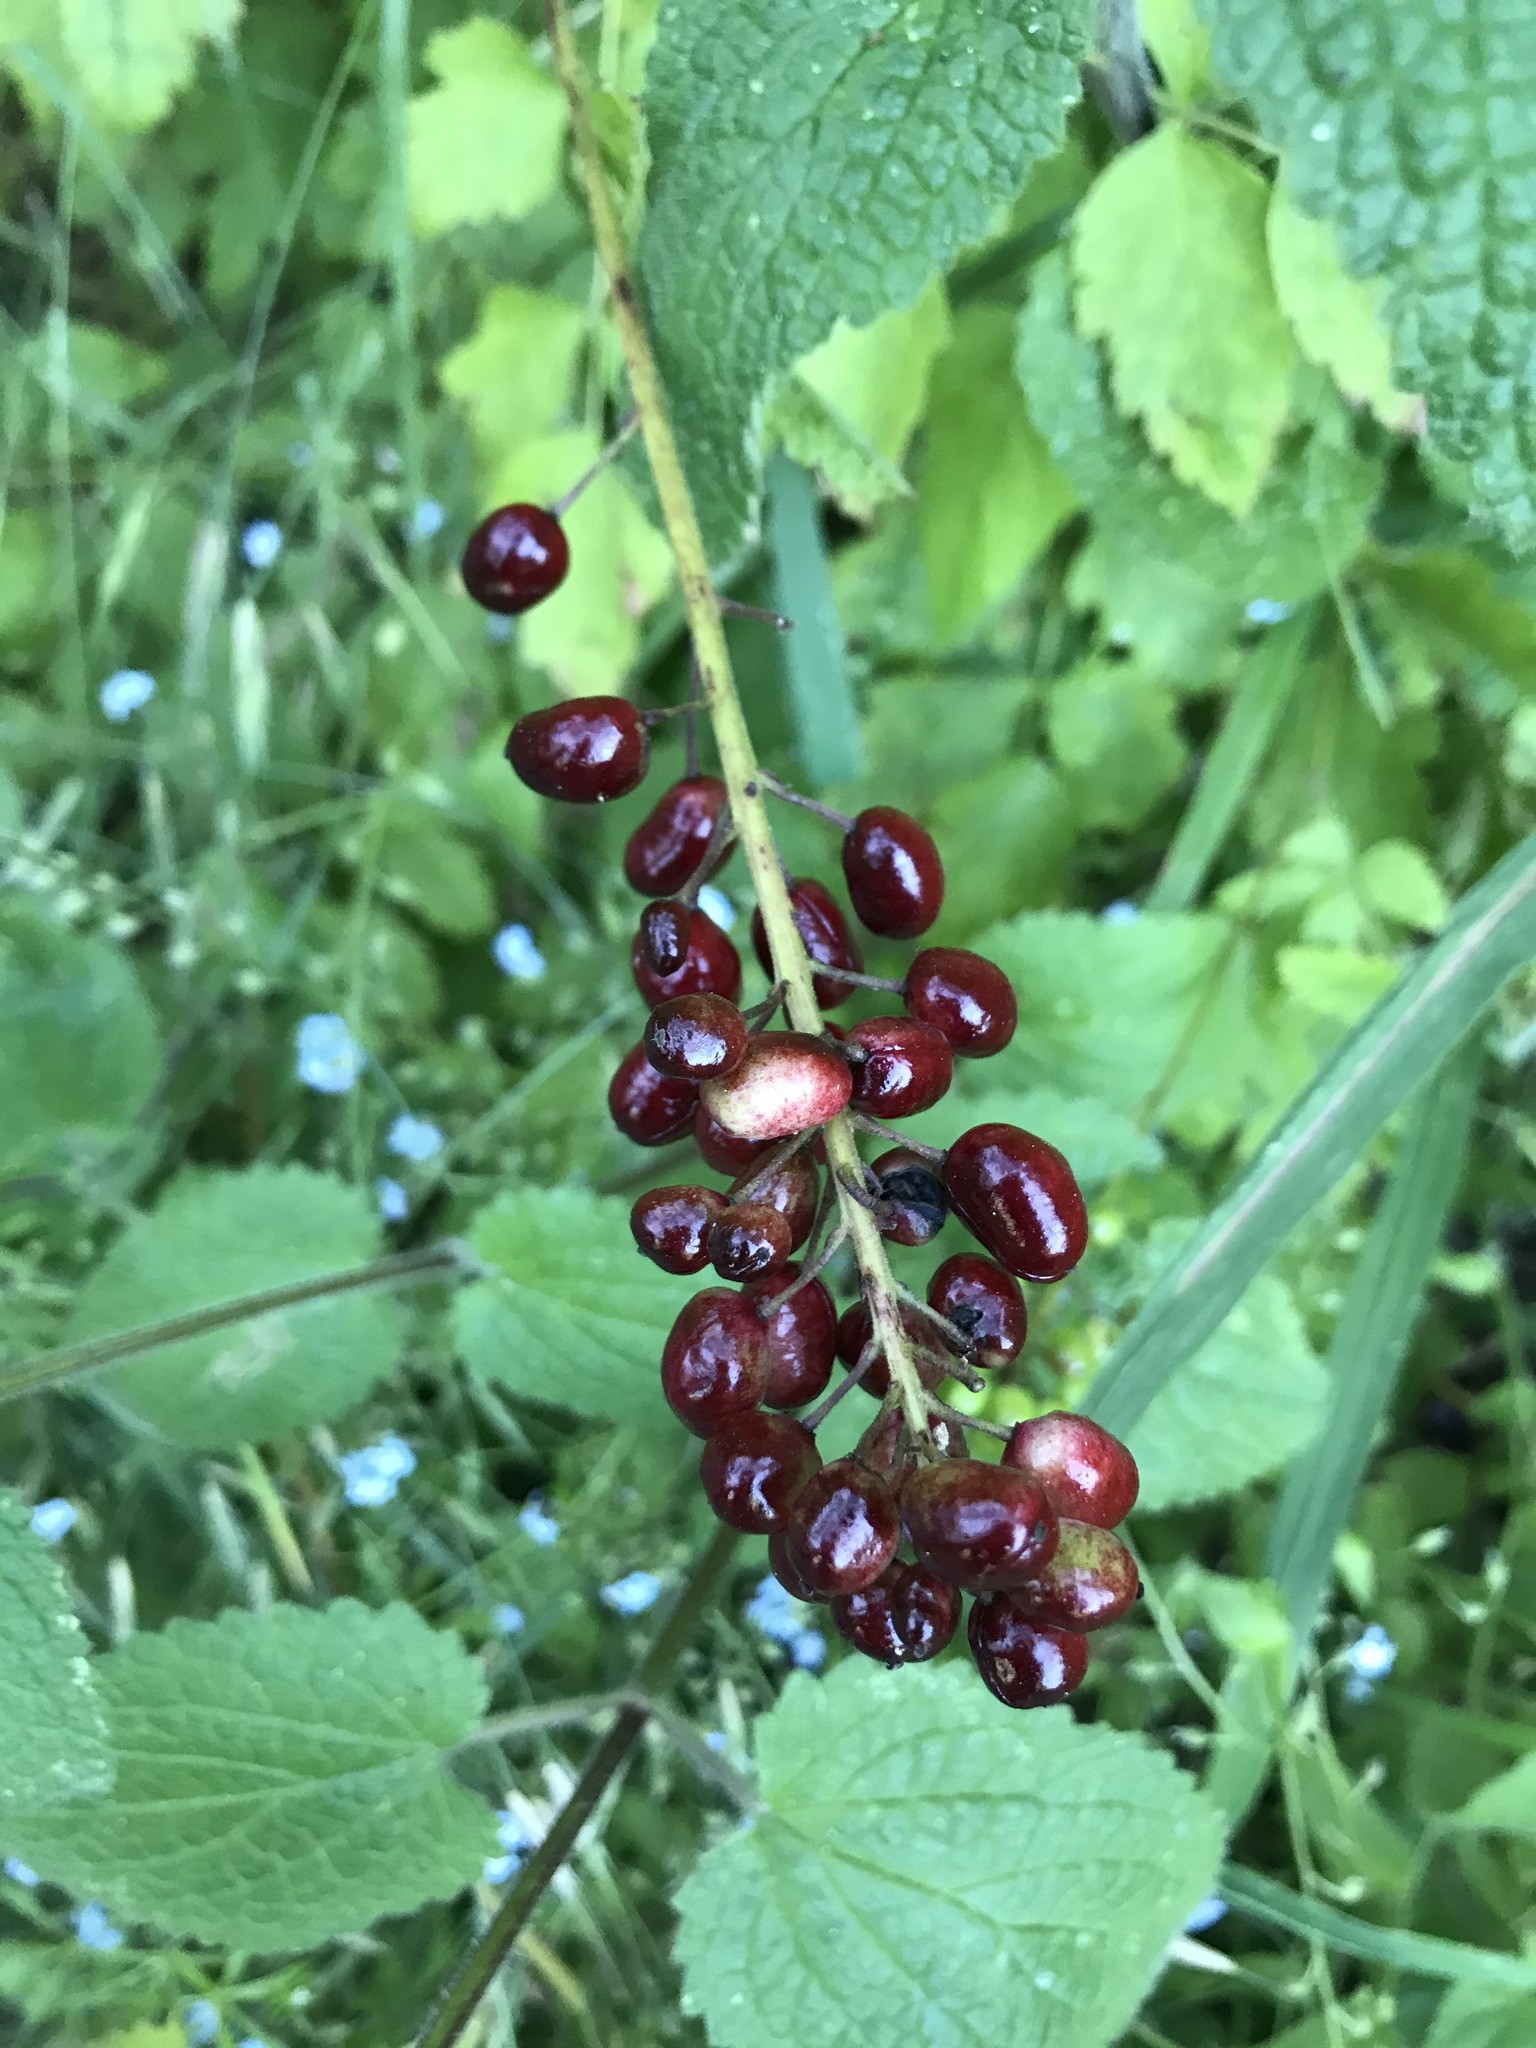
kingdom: Plantae
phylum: Tracheophyta
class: Magnoliopsida
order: Ranunculales
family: Ranunculaceae
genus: Actaea
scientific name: Actaea rubra
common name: Red baneberry
